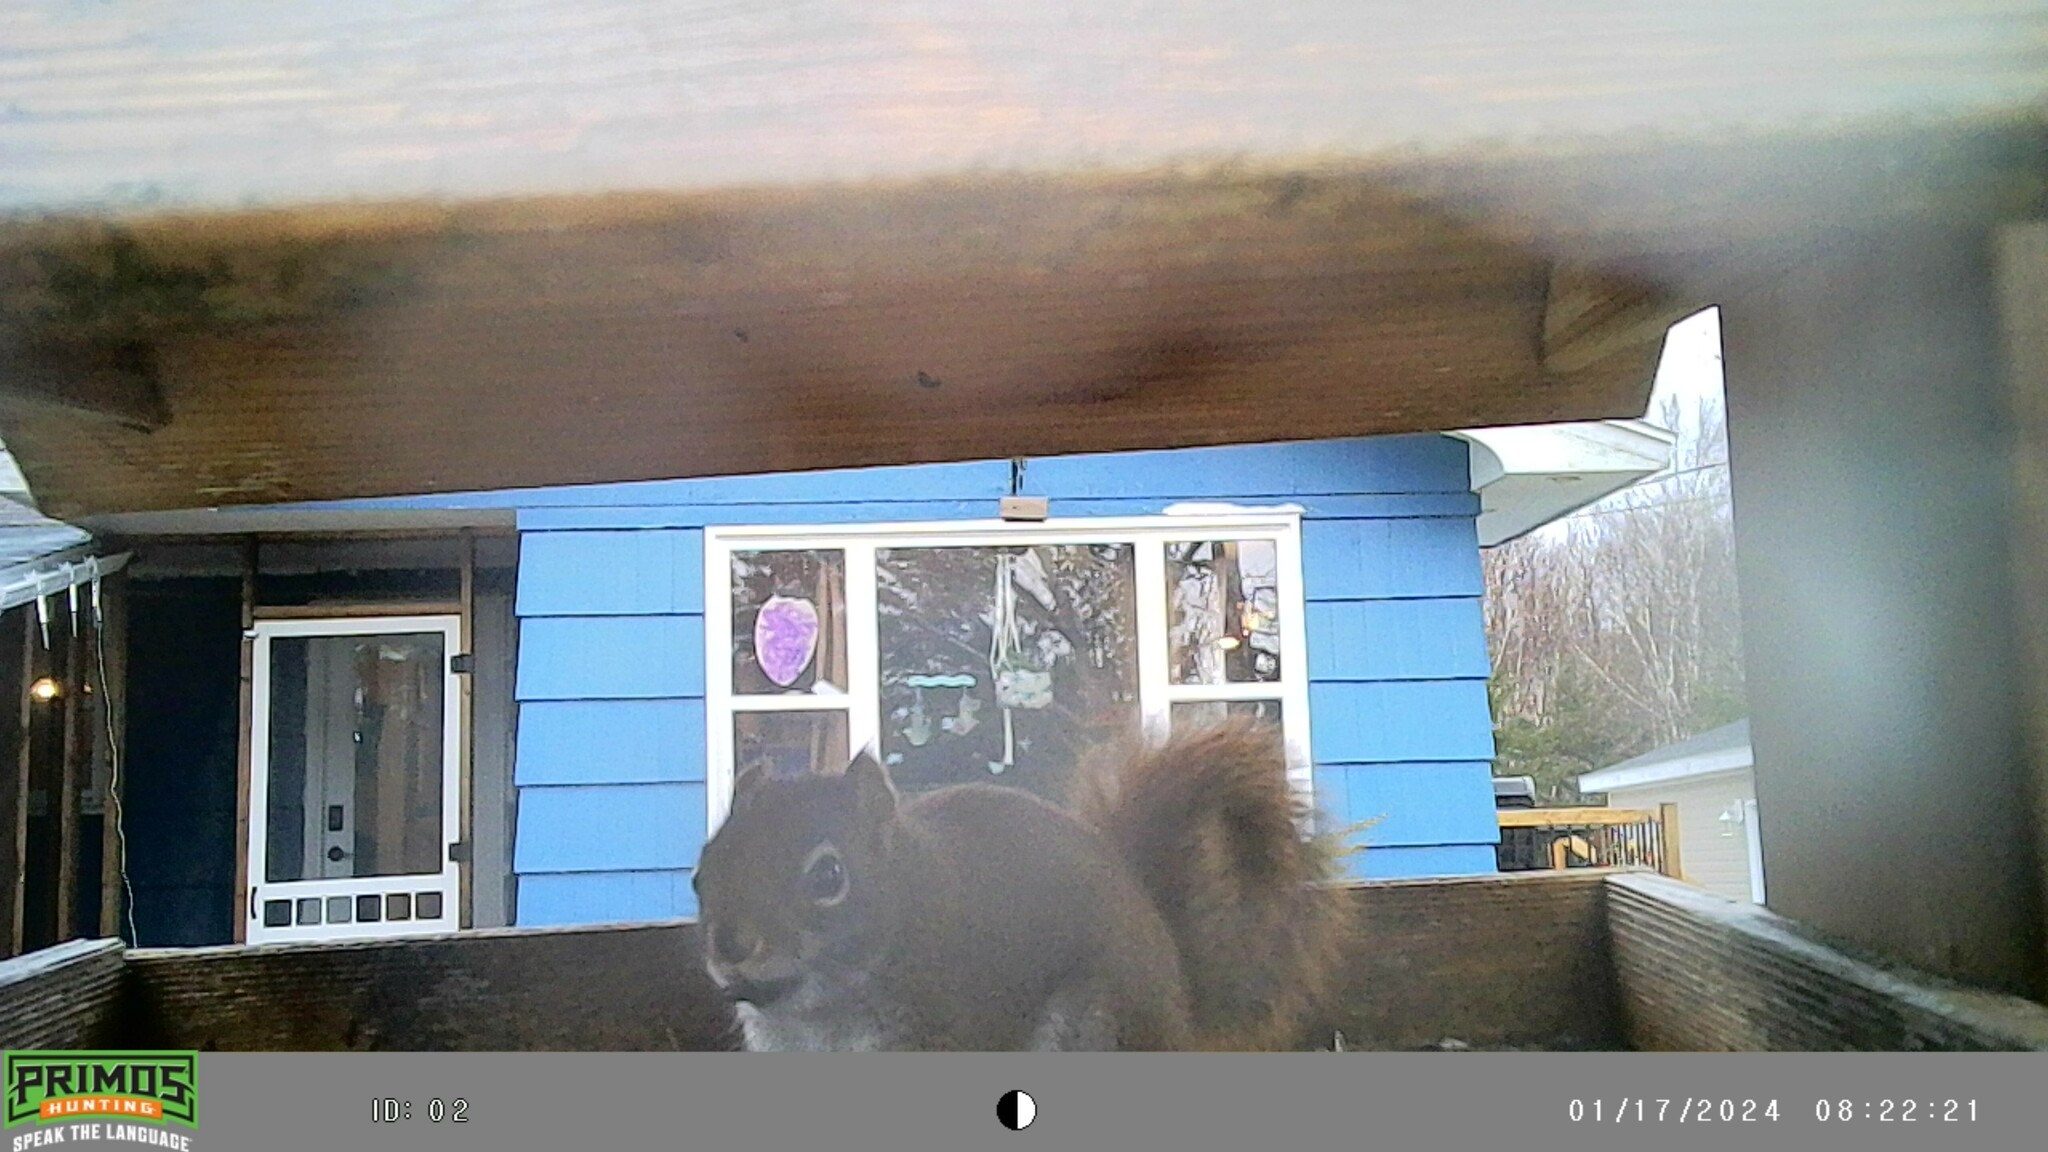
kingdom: Animalia
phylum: Chordata
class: Mammalia
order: Rodentia
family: Sciuridae
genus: Tamiasciurus
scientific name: Tamiasciurus hudsonicus
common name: Red squirrel
